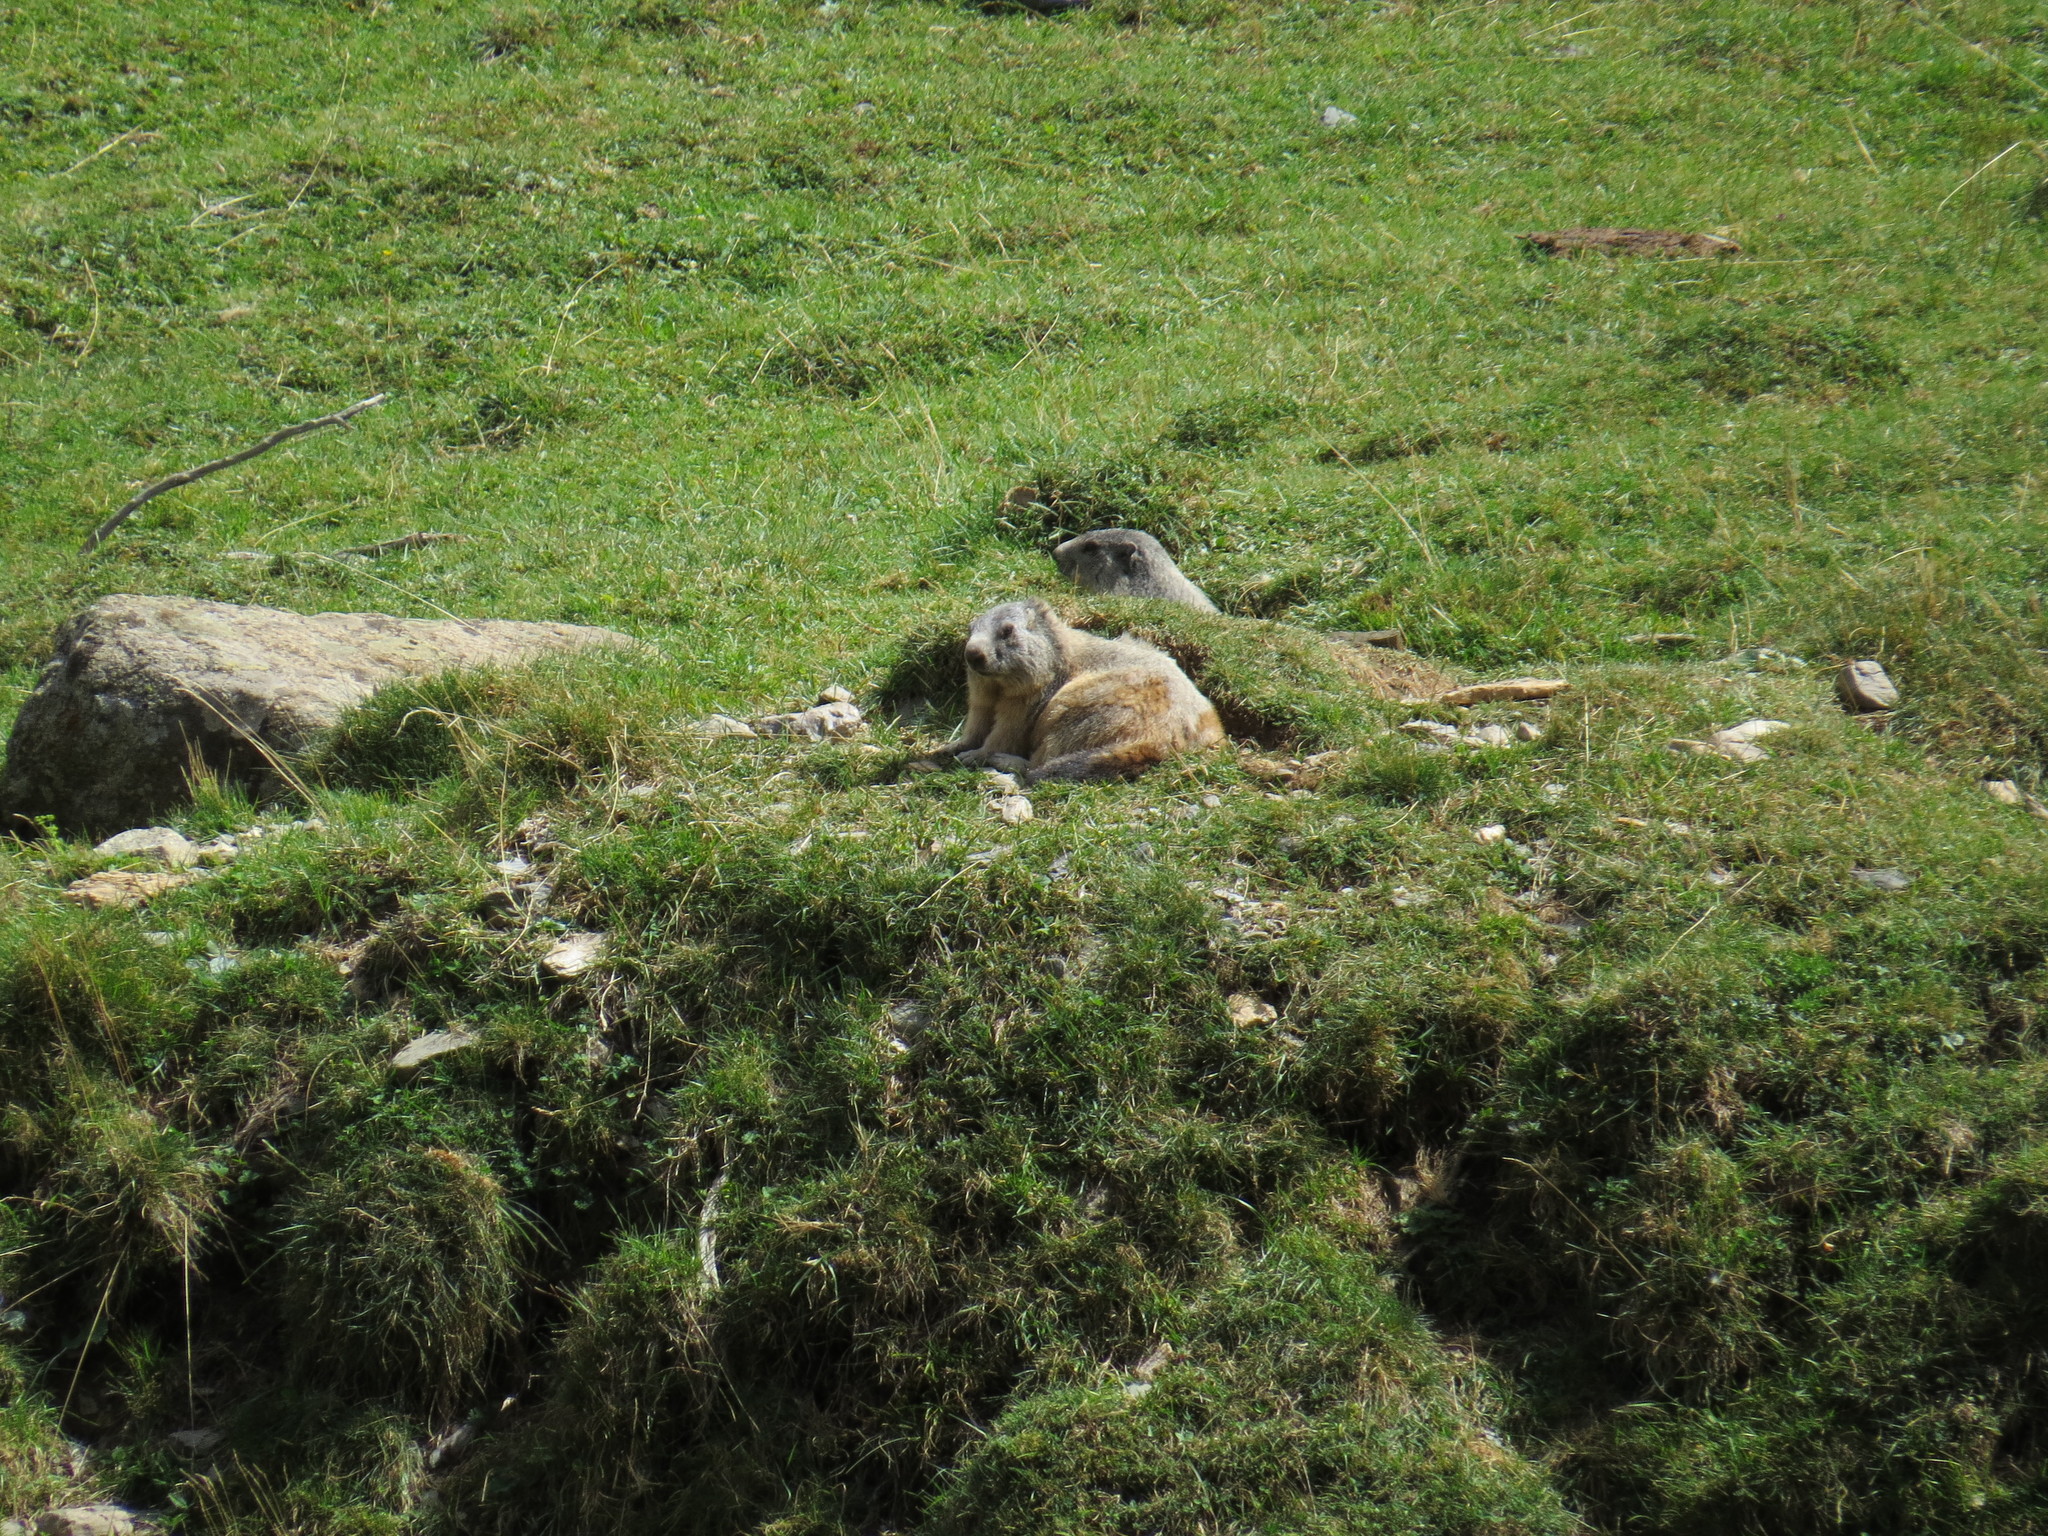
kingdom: Animalia
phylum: Chordata
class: Mammalia
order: Rodentia
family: Sciuridae
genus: Marmota
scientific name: Marmota marmota
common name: Alpine marmot
